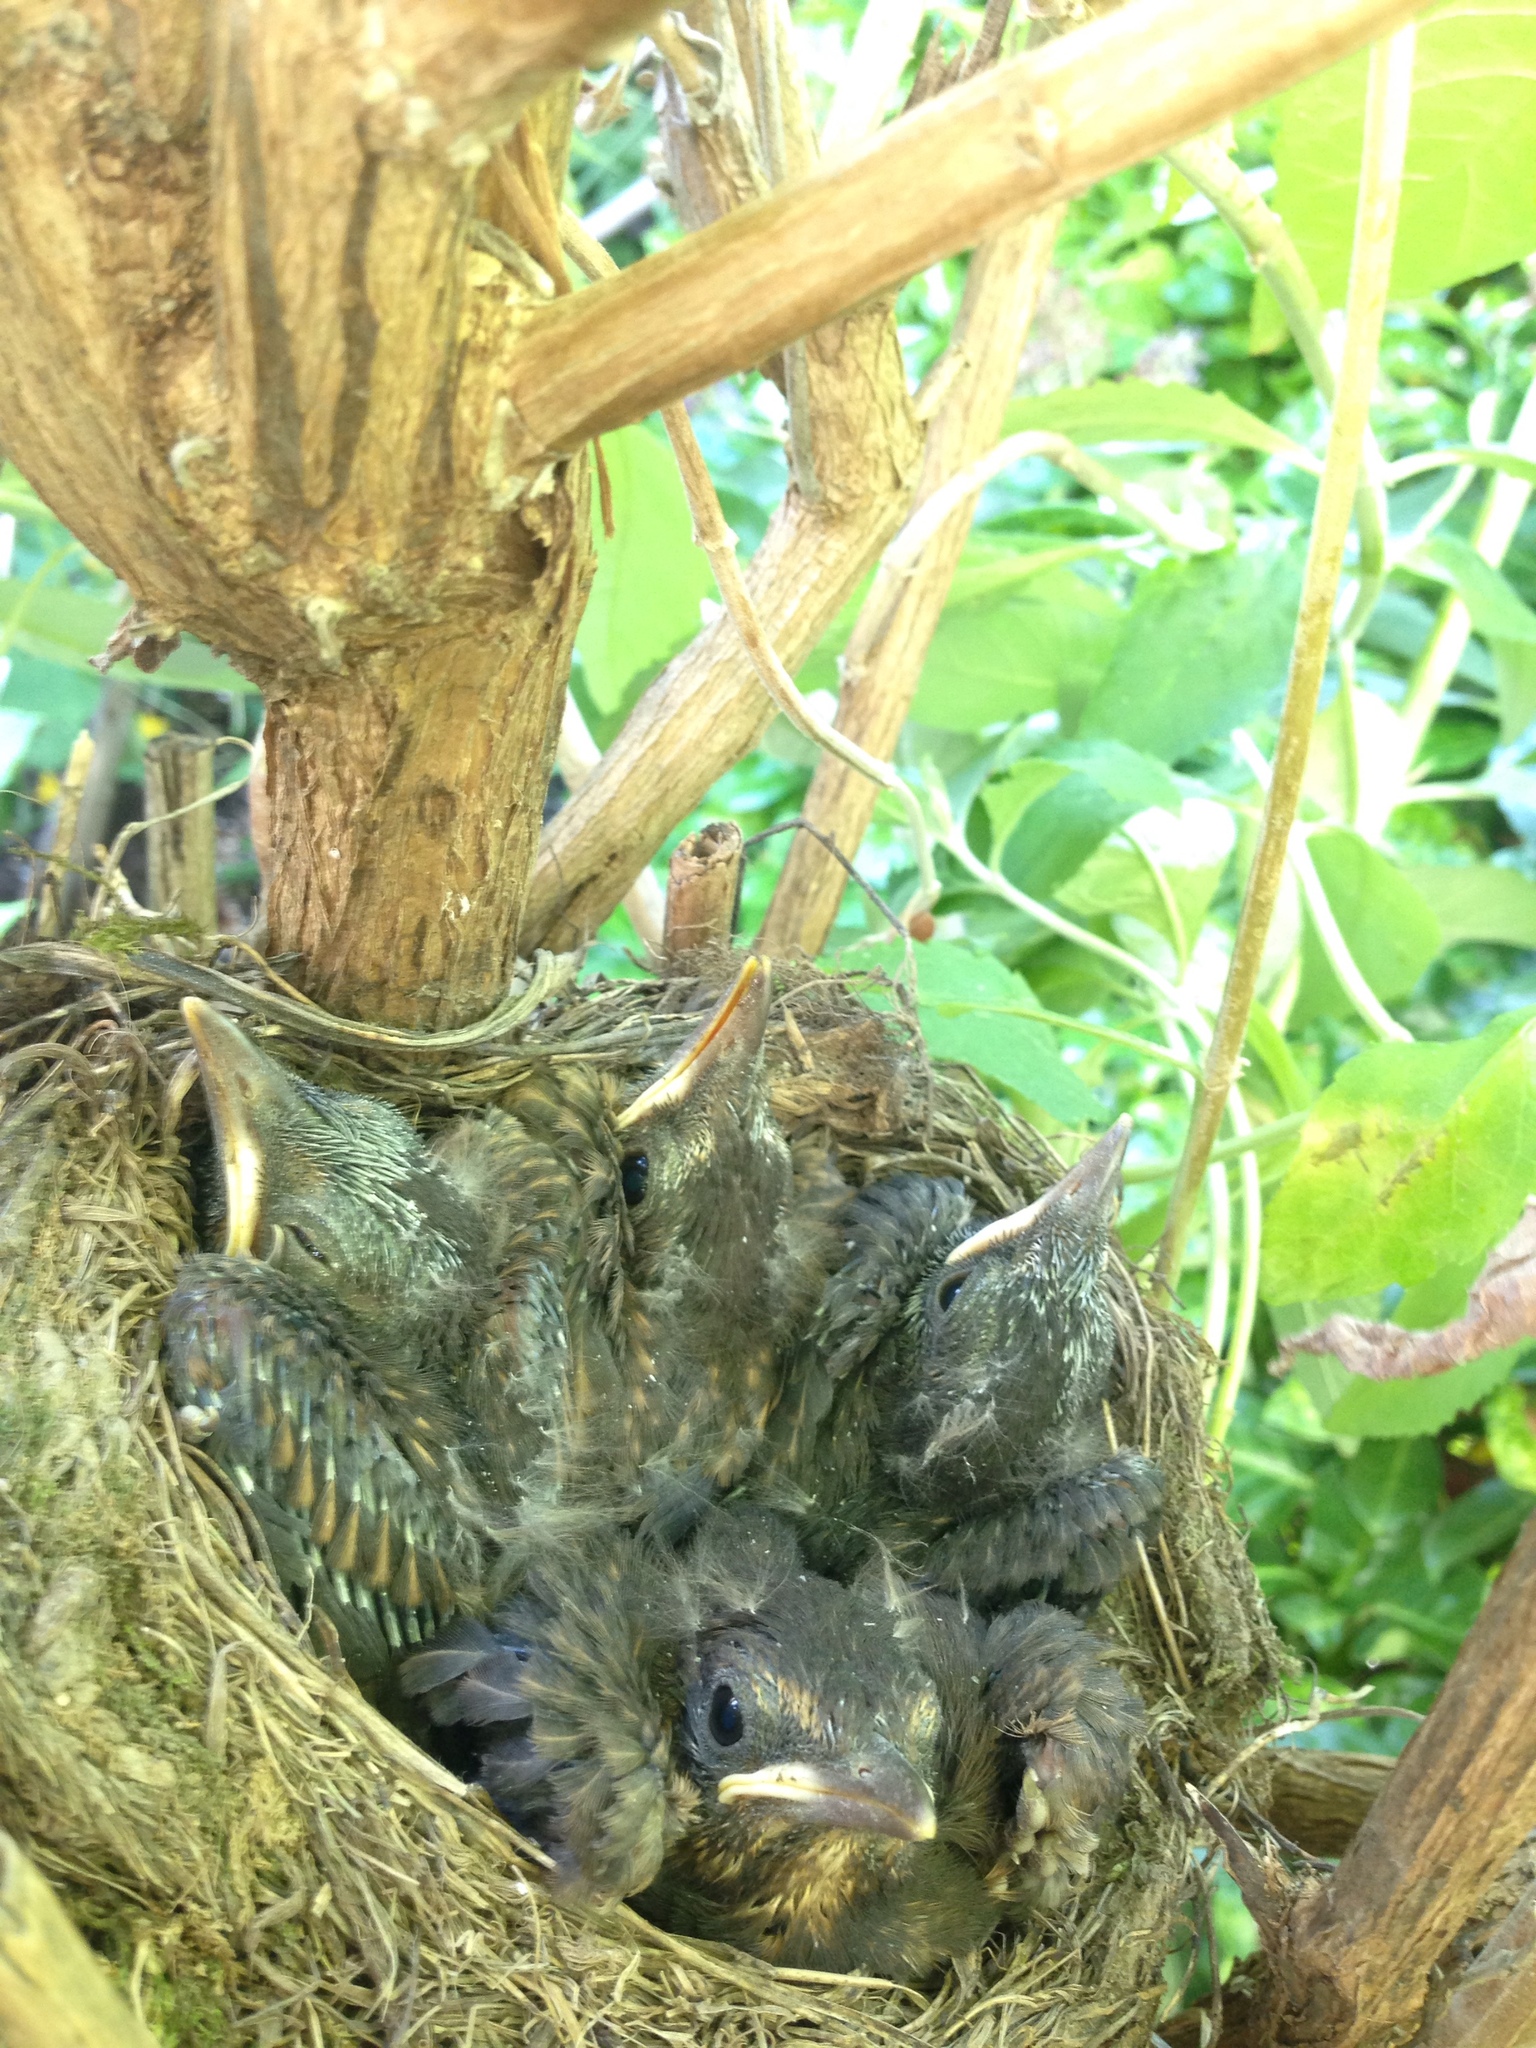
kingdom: Animalia
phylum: Chordata
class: Aves
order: Passeriformes
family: Turdidae
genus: Turdus
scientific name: Turdus merula
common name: Common blackbird
